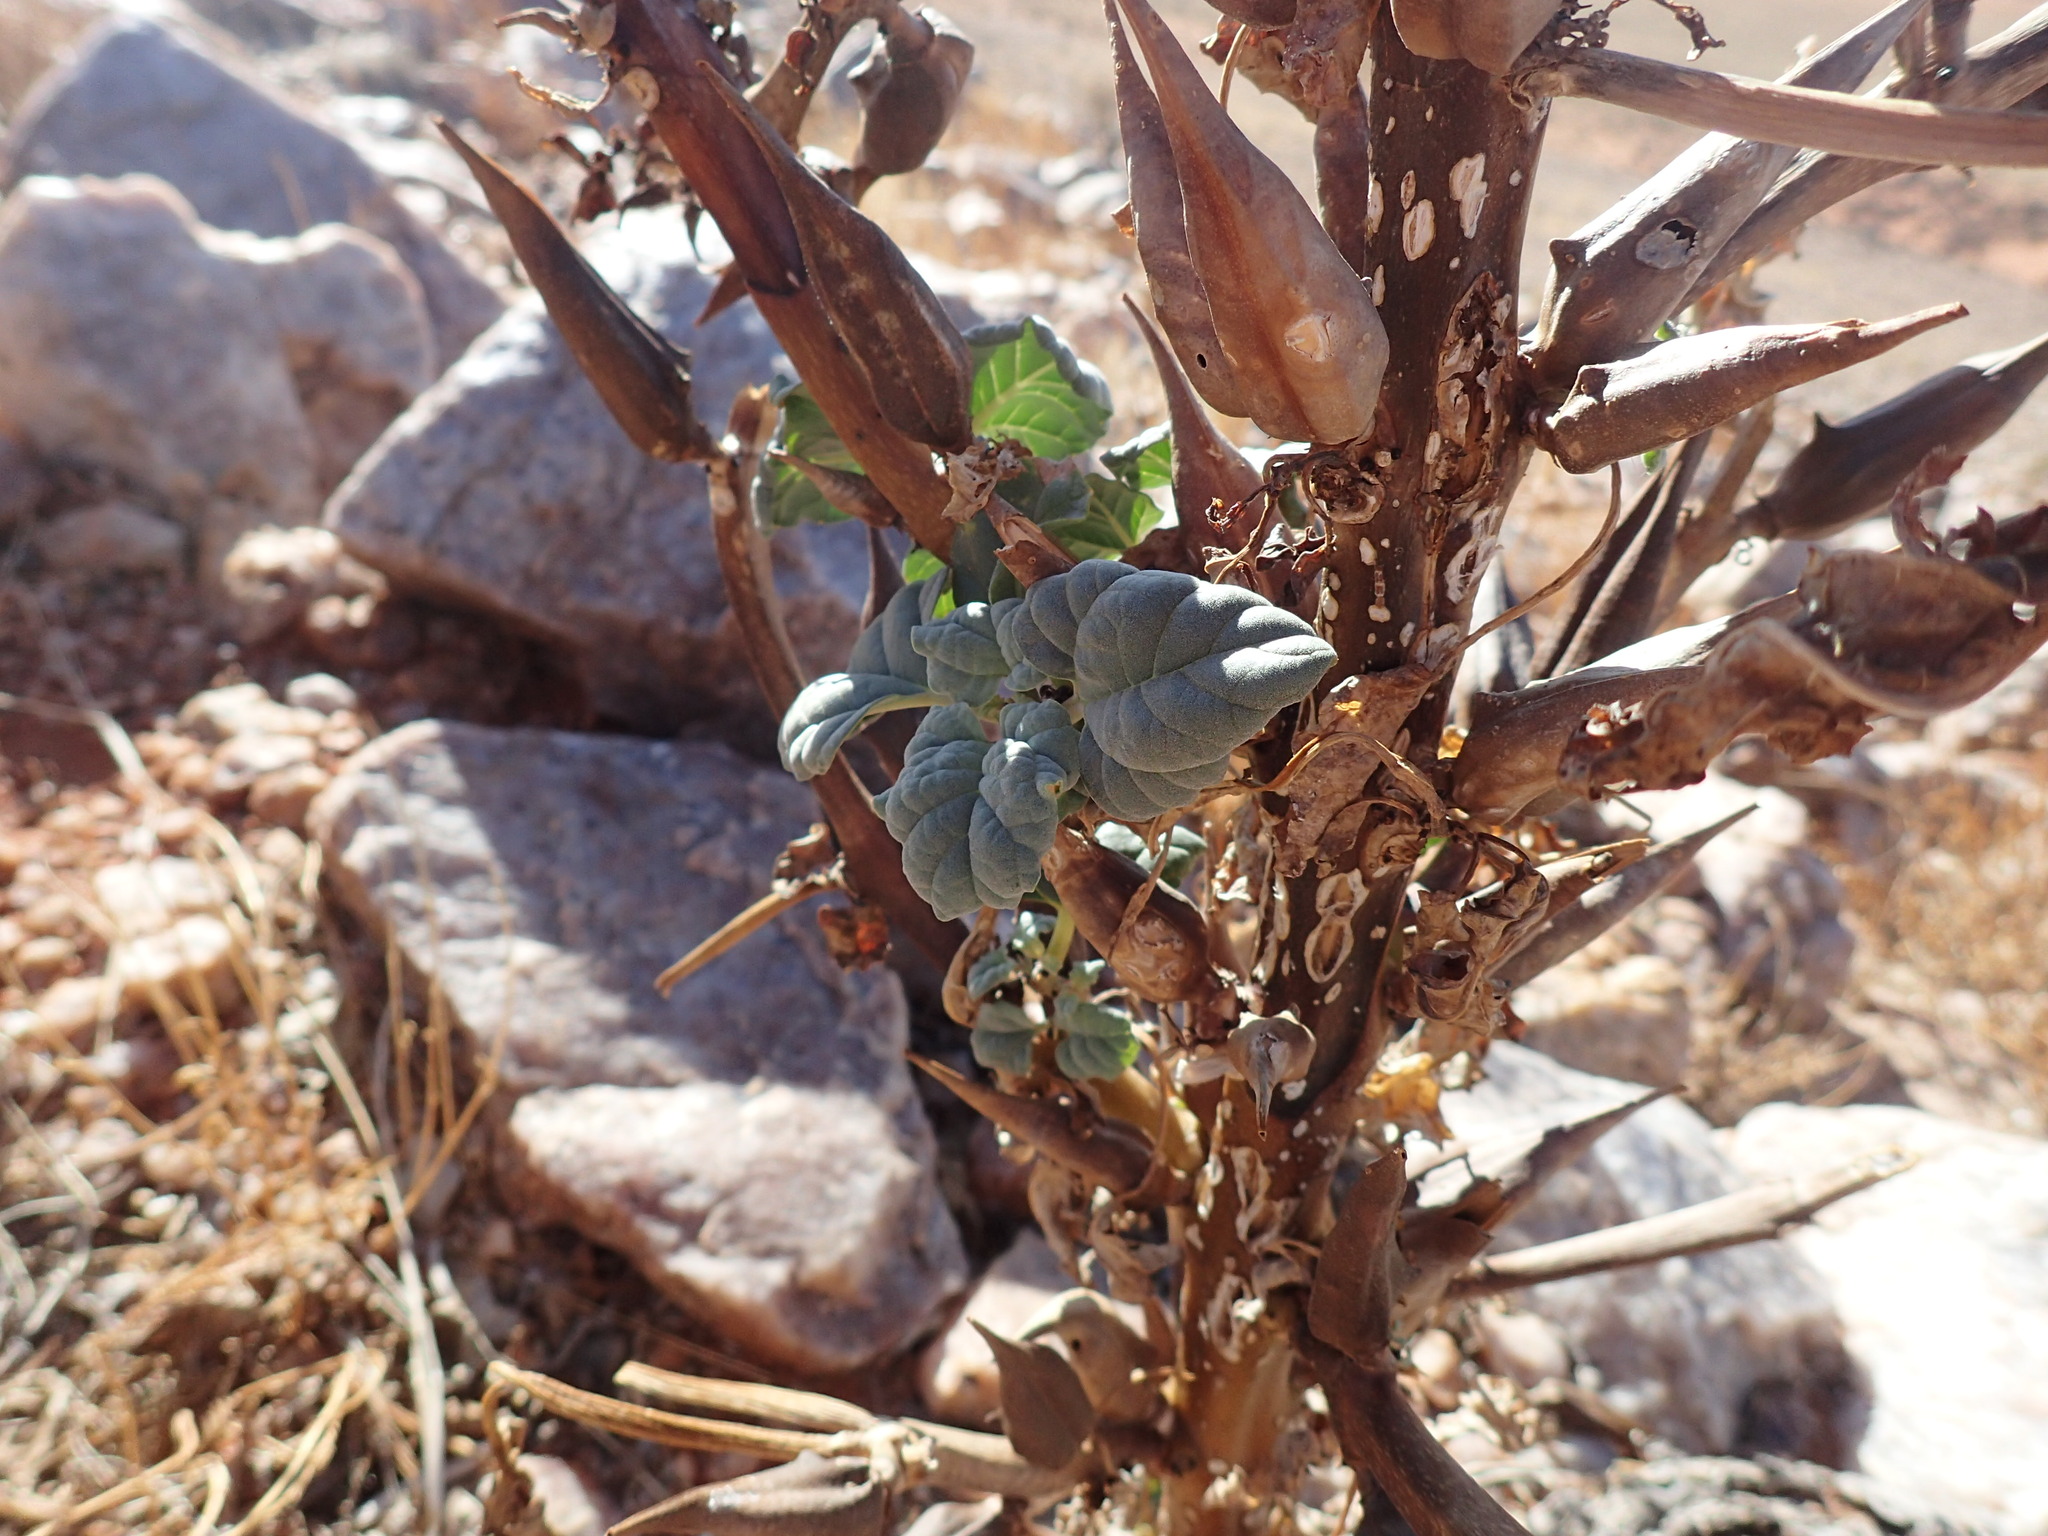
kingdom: Plantae
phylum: Tracheophyta
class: Magnoliopsida
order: Lamiales
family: Pedaliaceae
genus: Rogeria
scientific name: Rogeria longiflora
